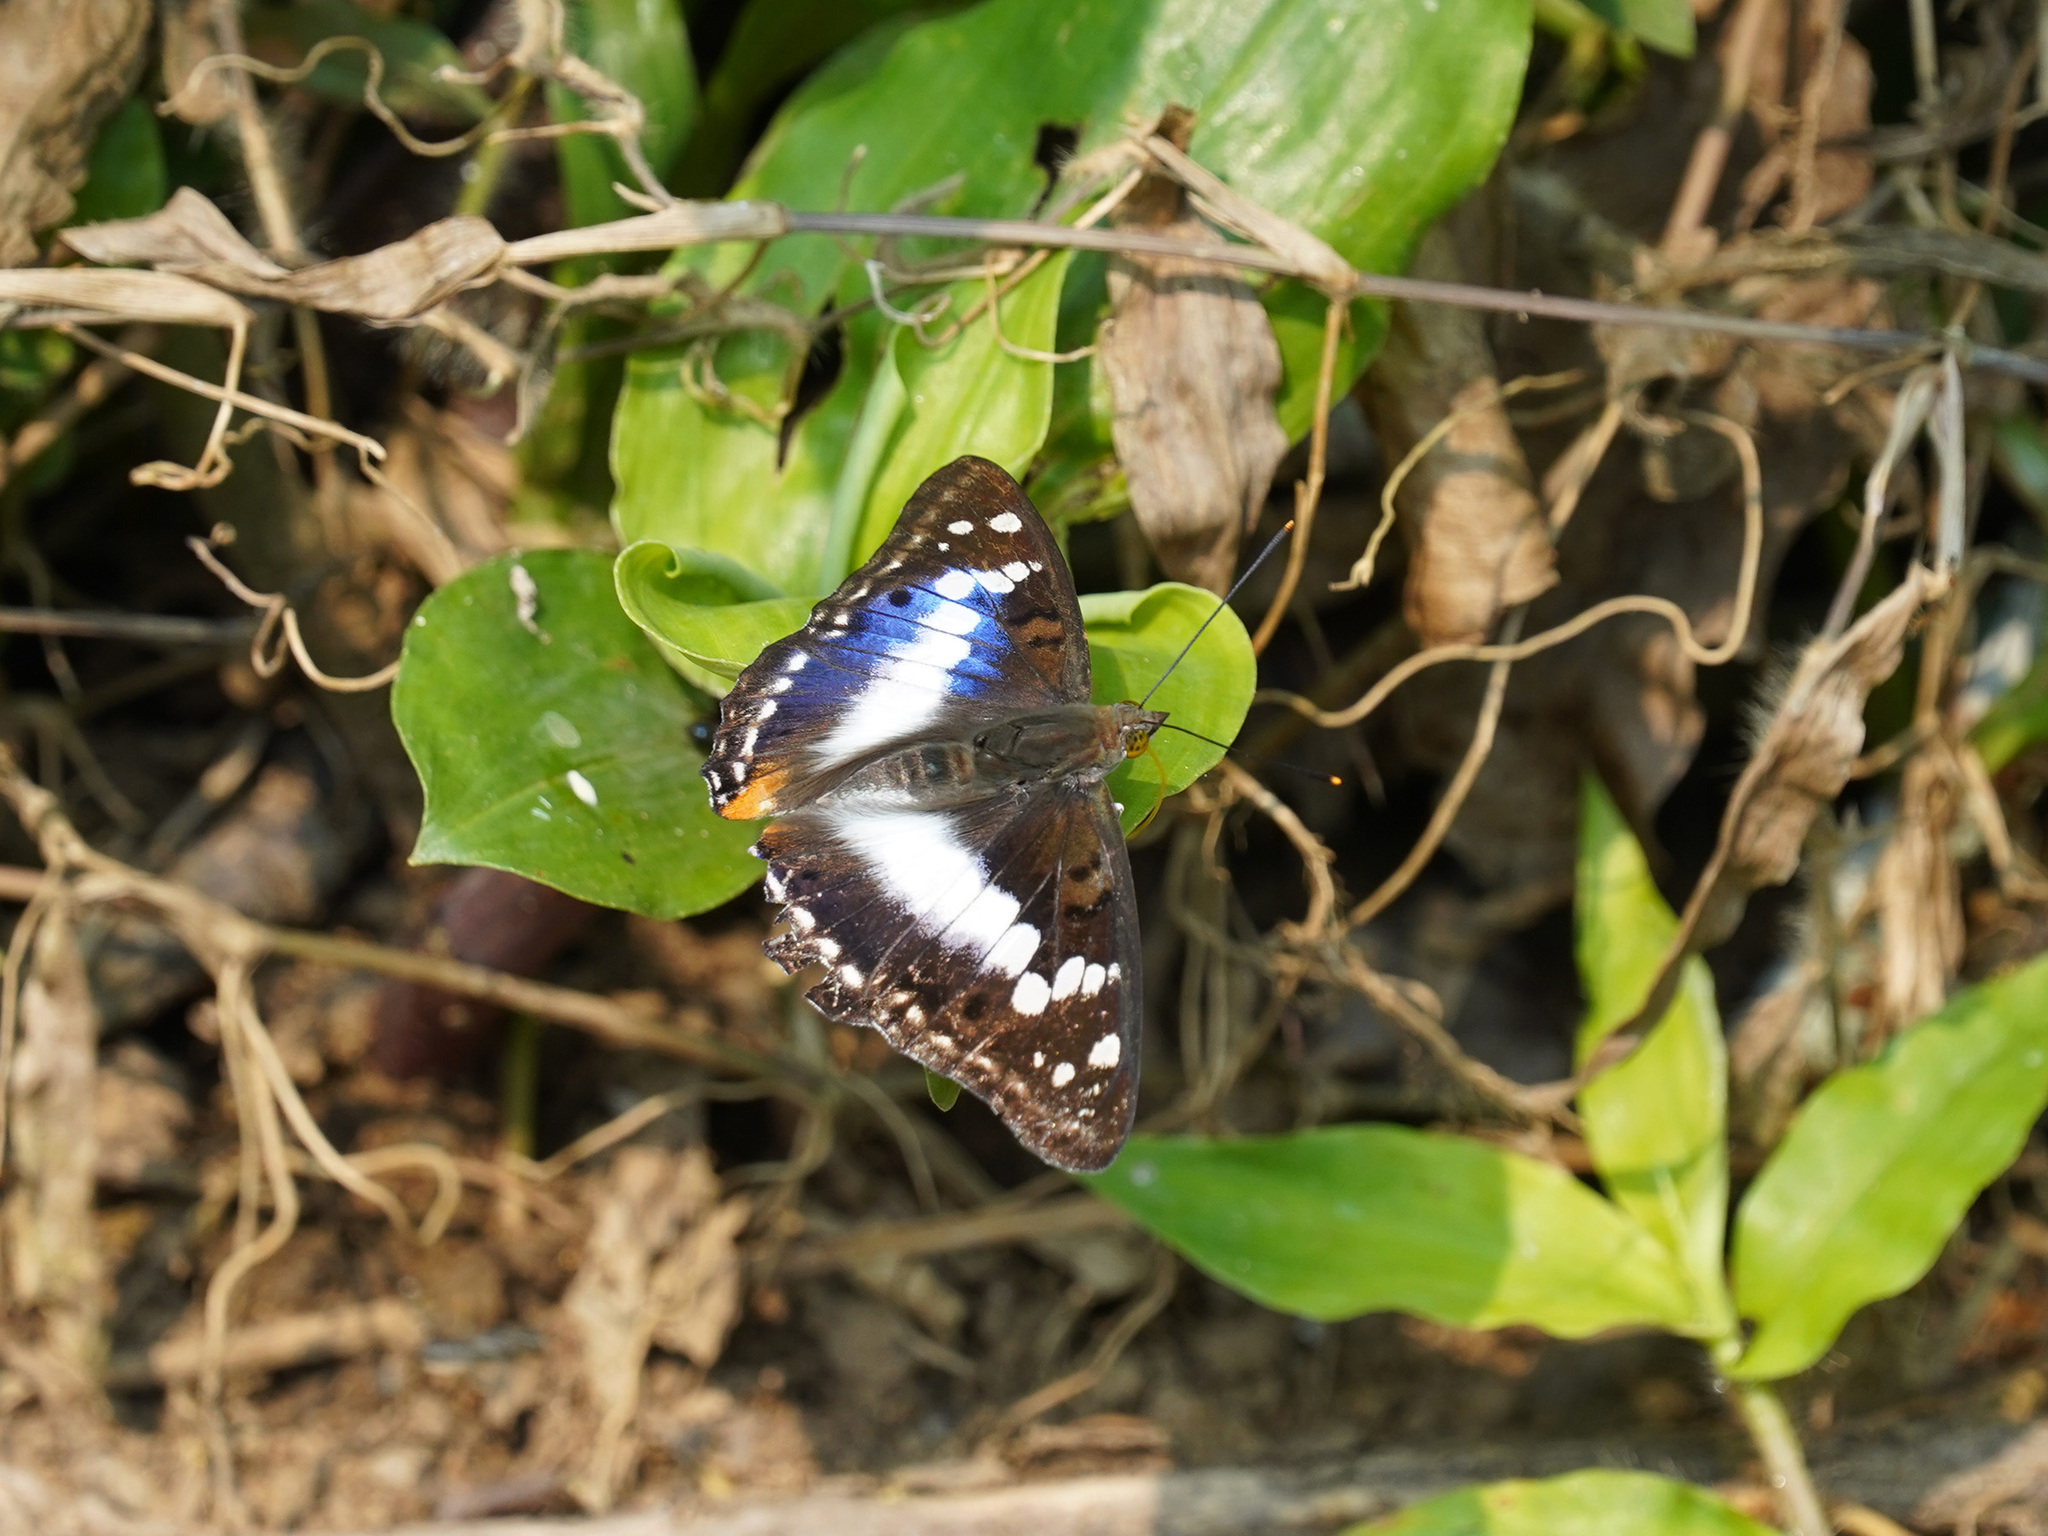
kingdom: Animalia
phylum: Arthropoda
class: Insecta
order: Lepidoptera
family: Nymphalidae
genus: Apatura
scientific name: Apatura Mimathyma ambica
